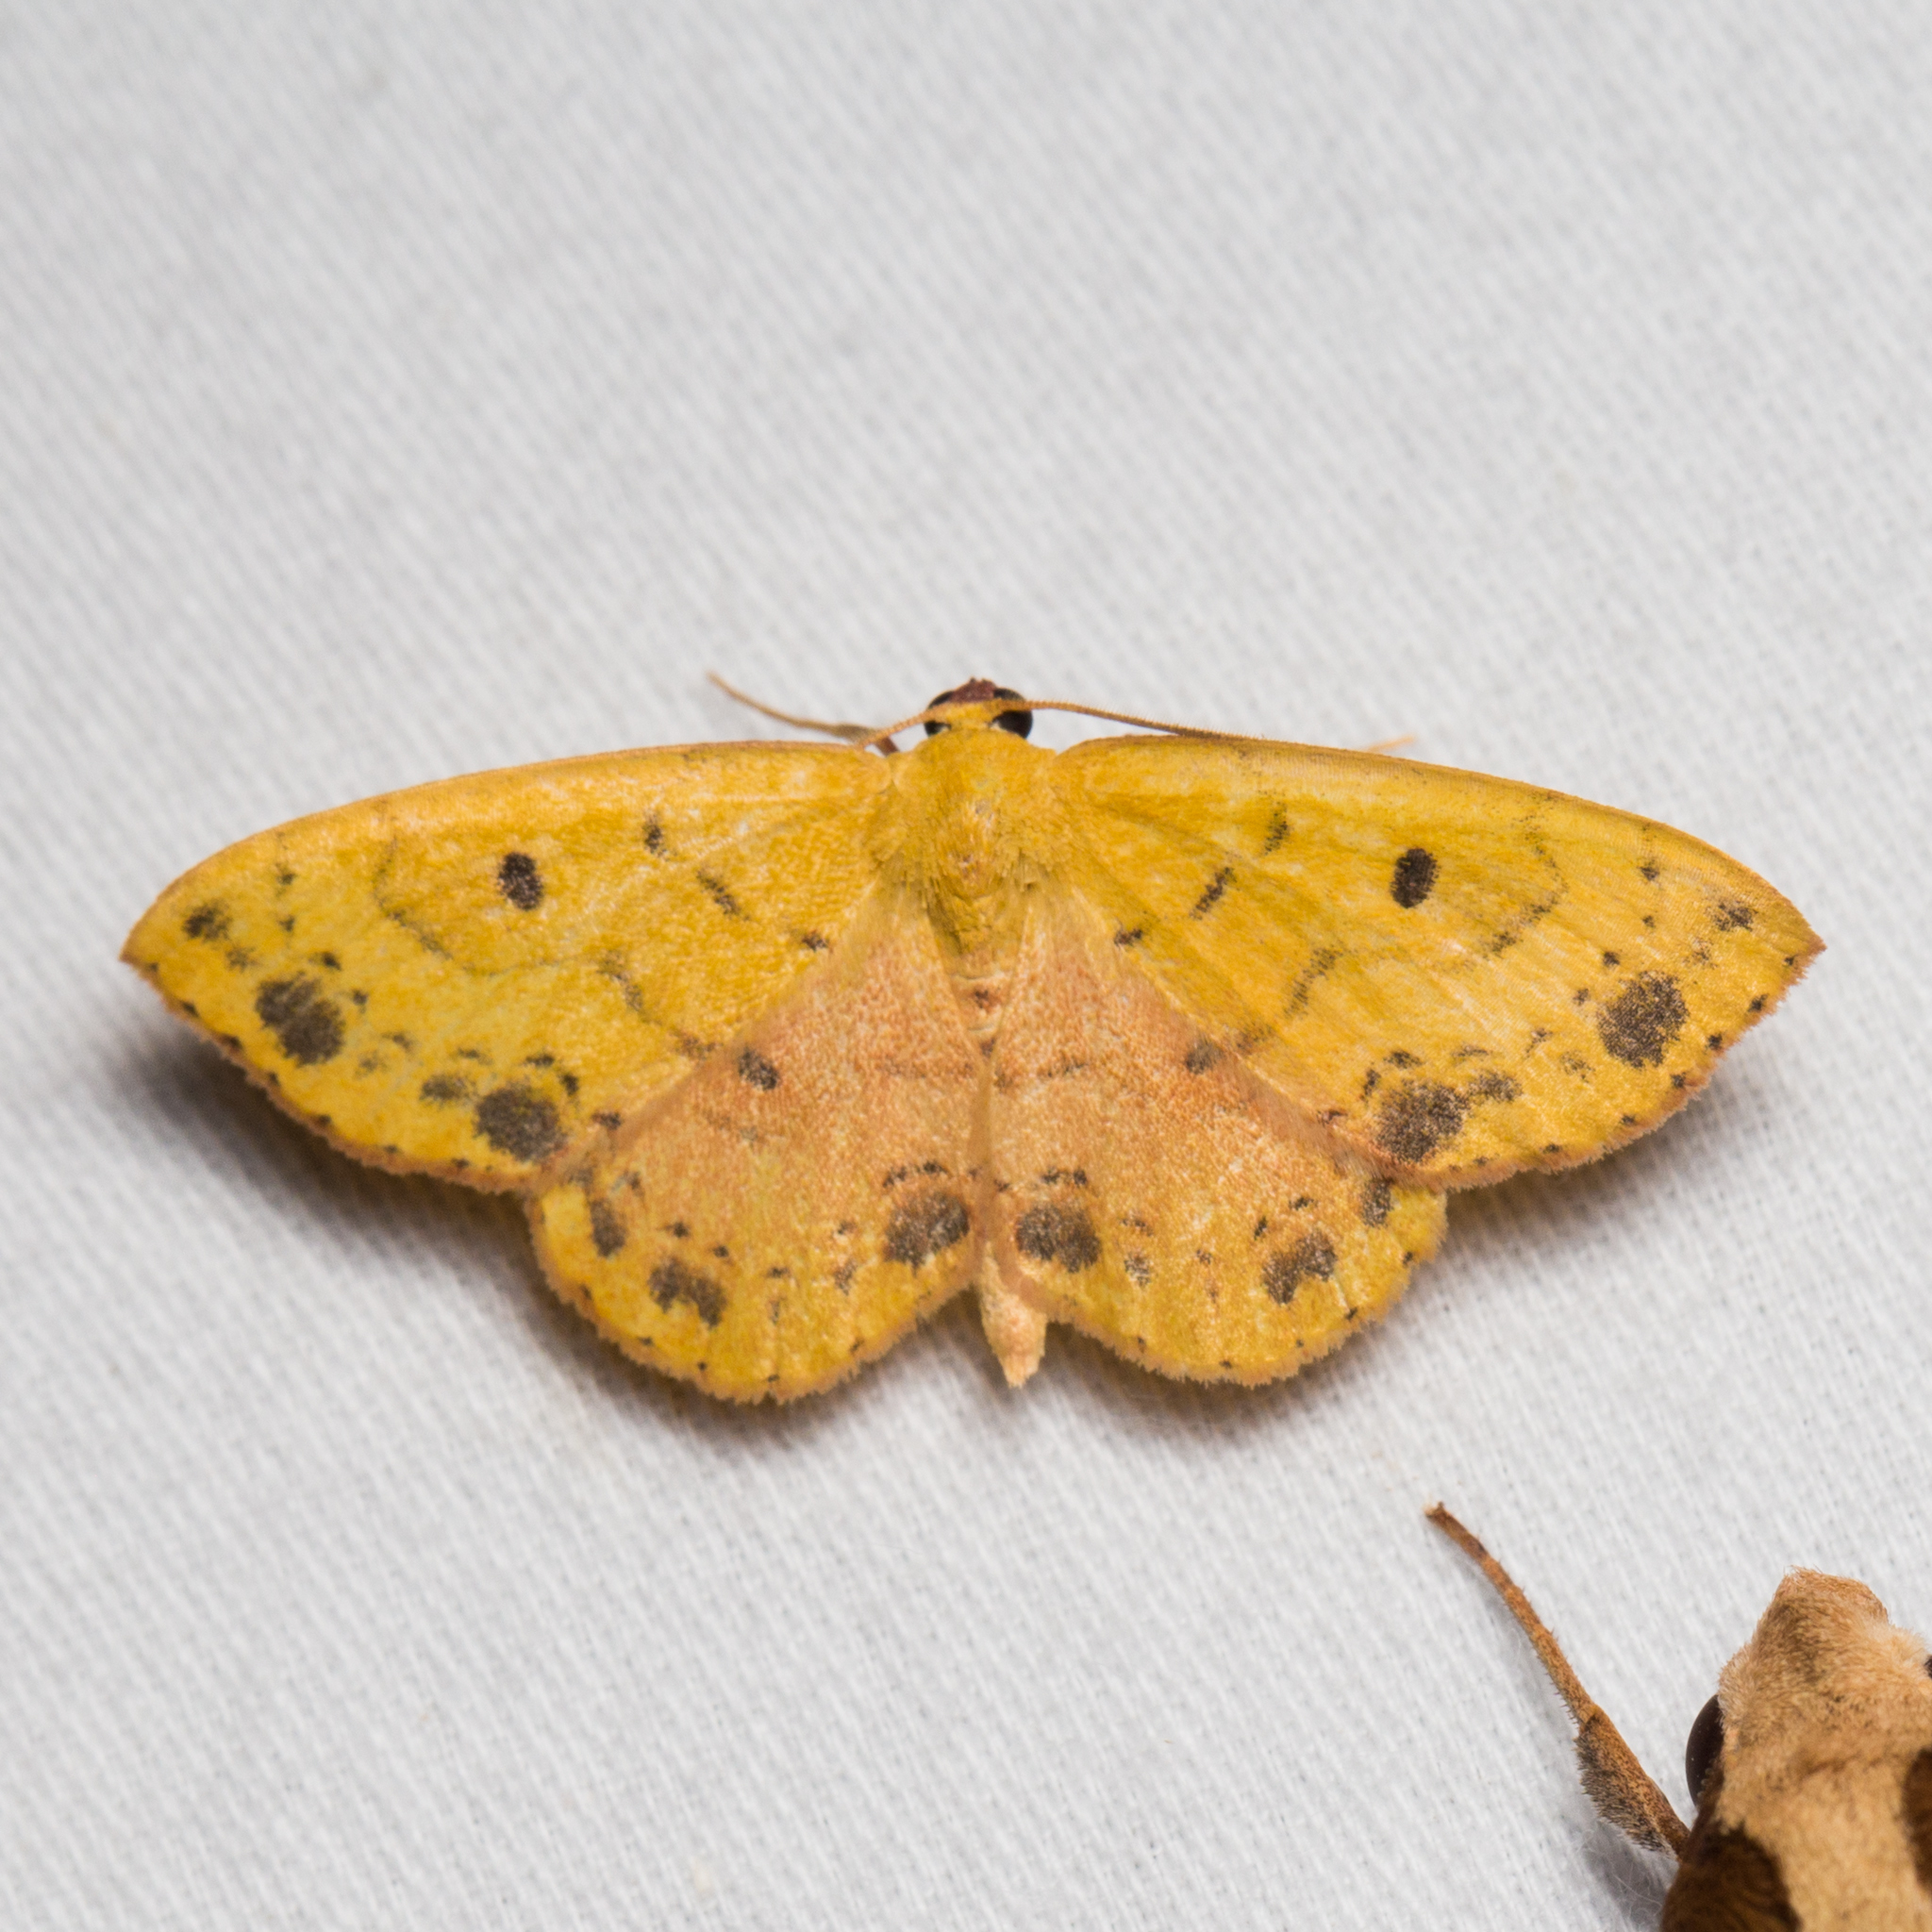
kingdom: Animalia
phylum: Arthropoda
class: Insecta
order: Lepidoptera
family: Geometridae
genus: Semaeopus
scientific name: Semaeopus ella
